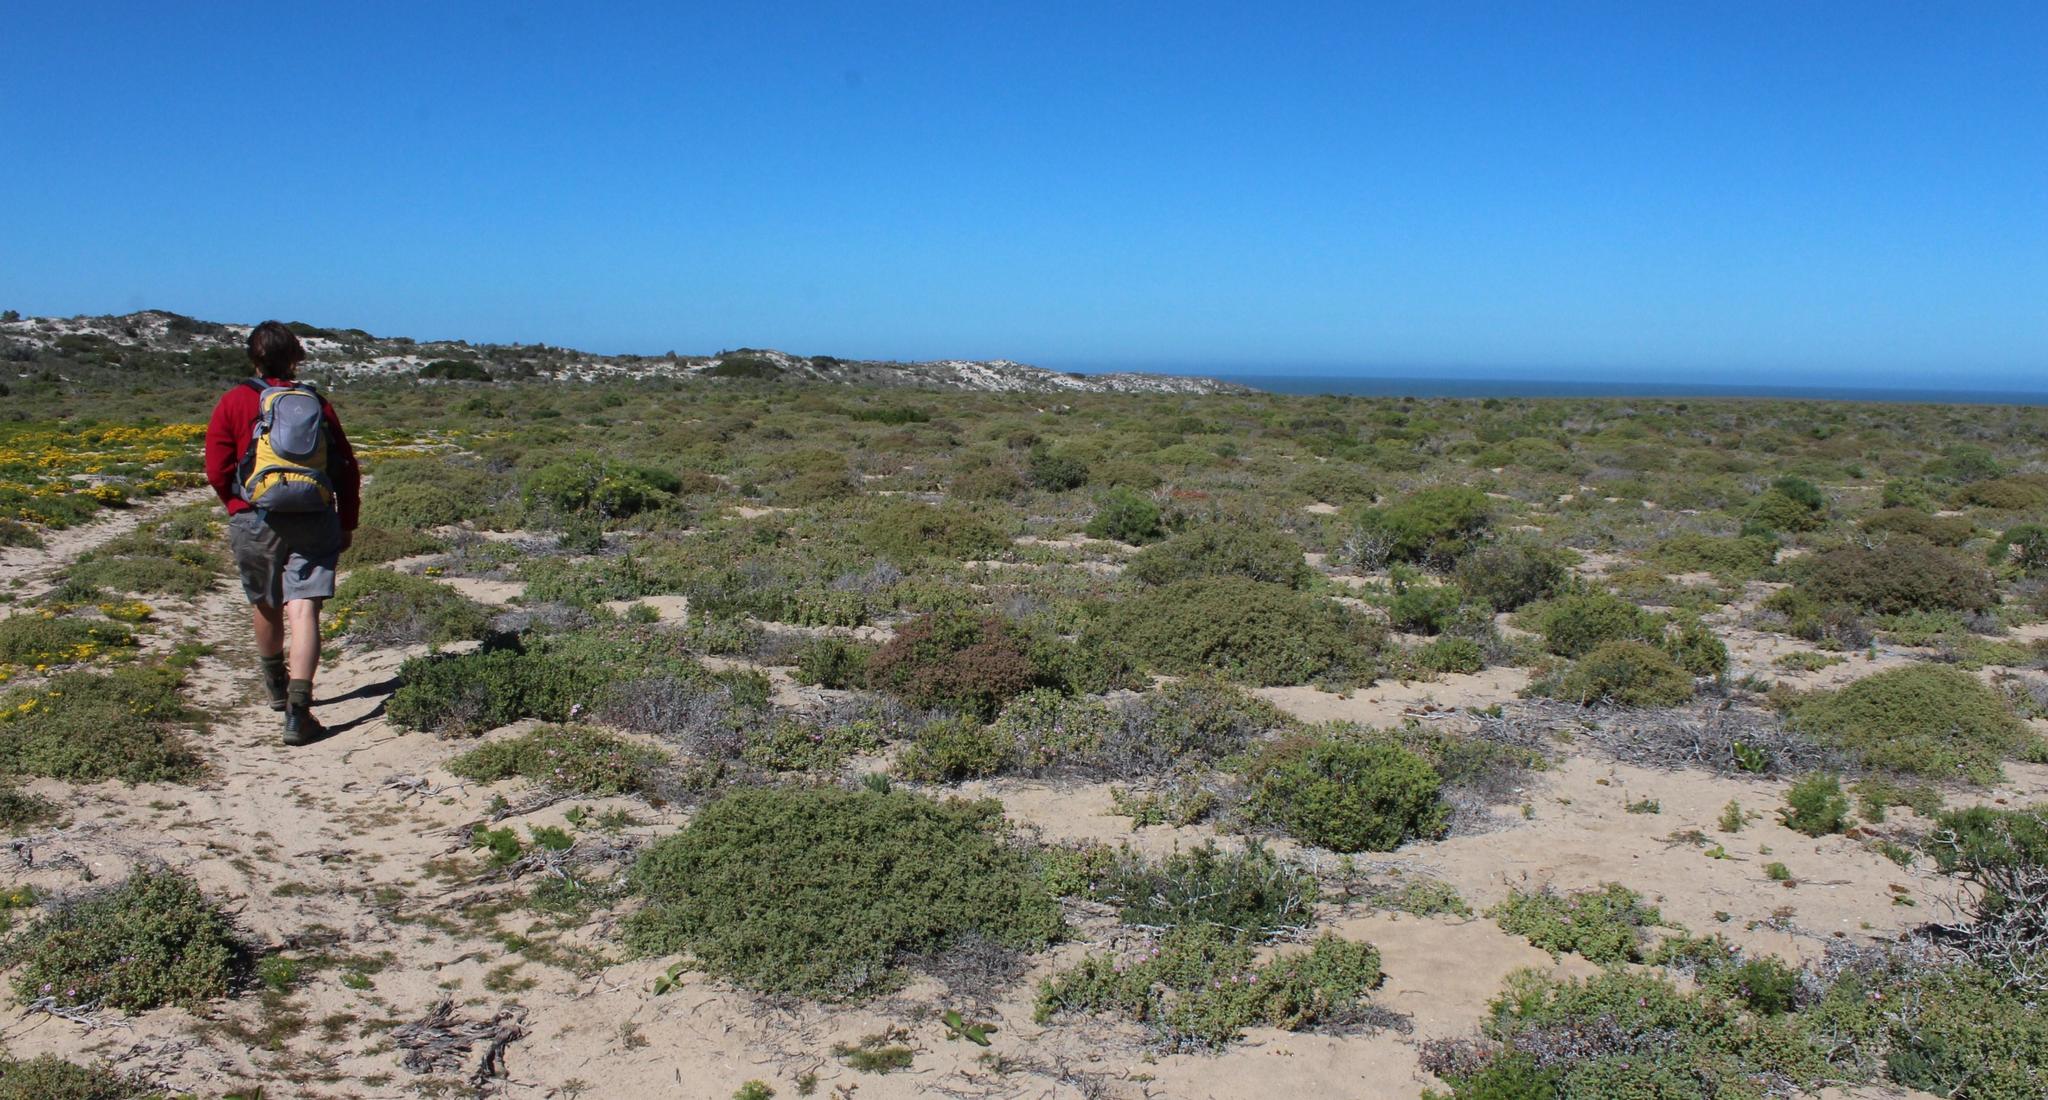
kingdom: Plantae
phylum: Tracheophyta
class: Magnoliopsida
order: Caryophyllales
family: Aizoaceae
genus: Amphibolia
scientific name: Amphibolia laevis
